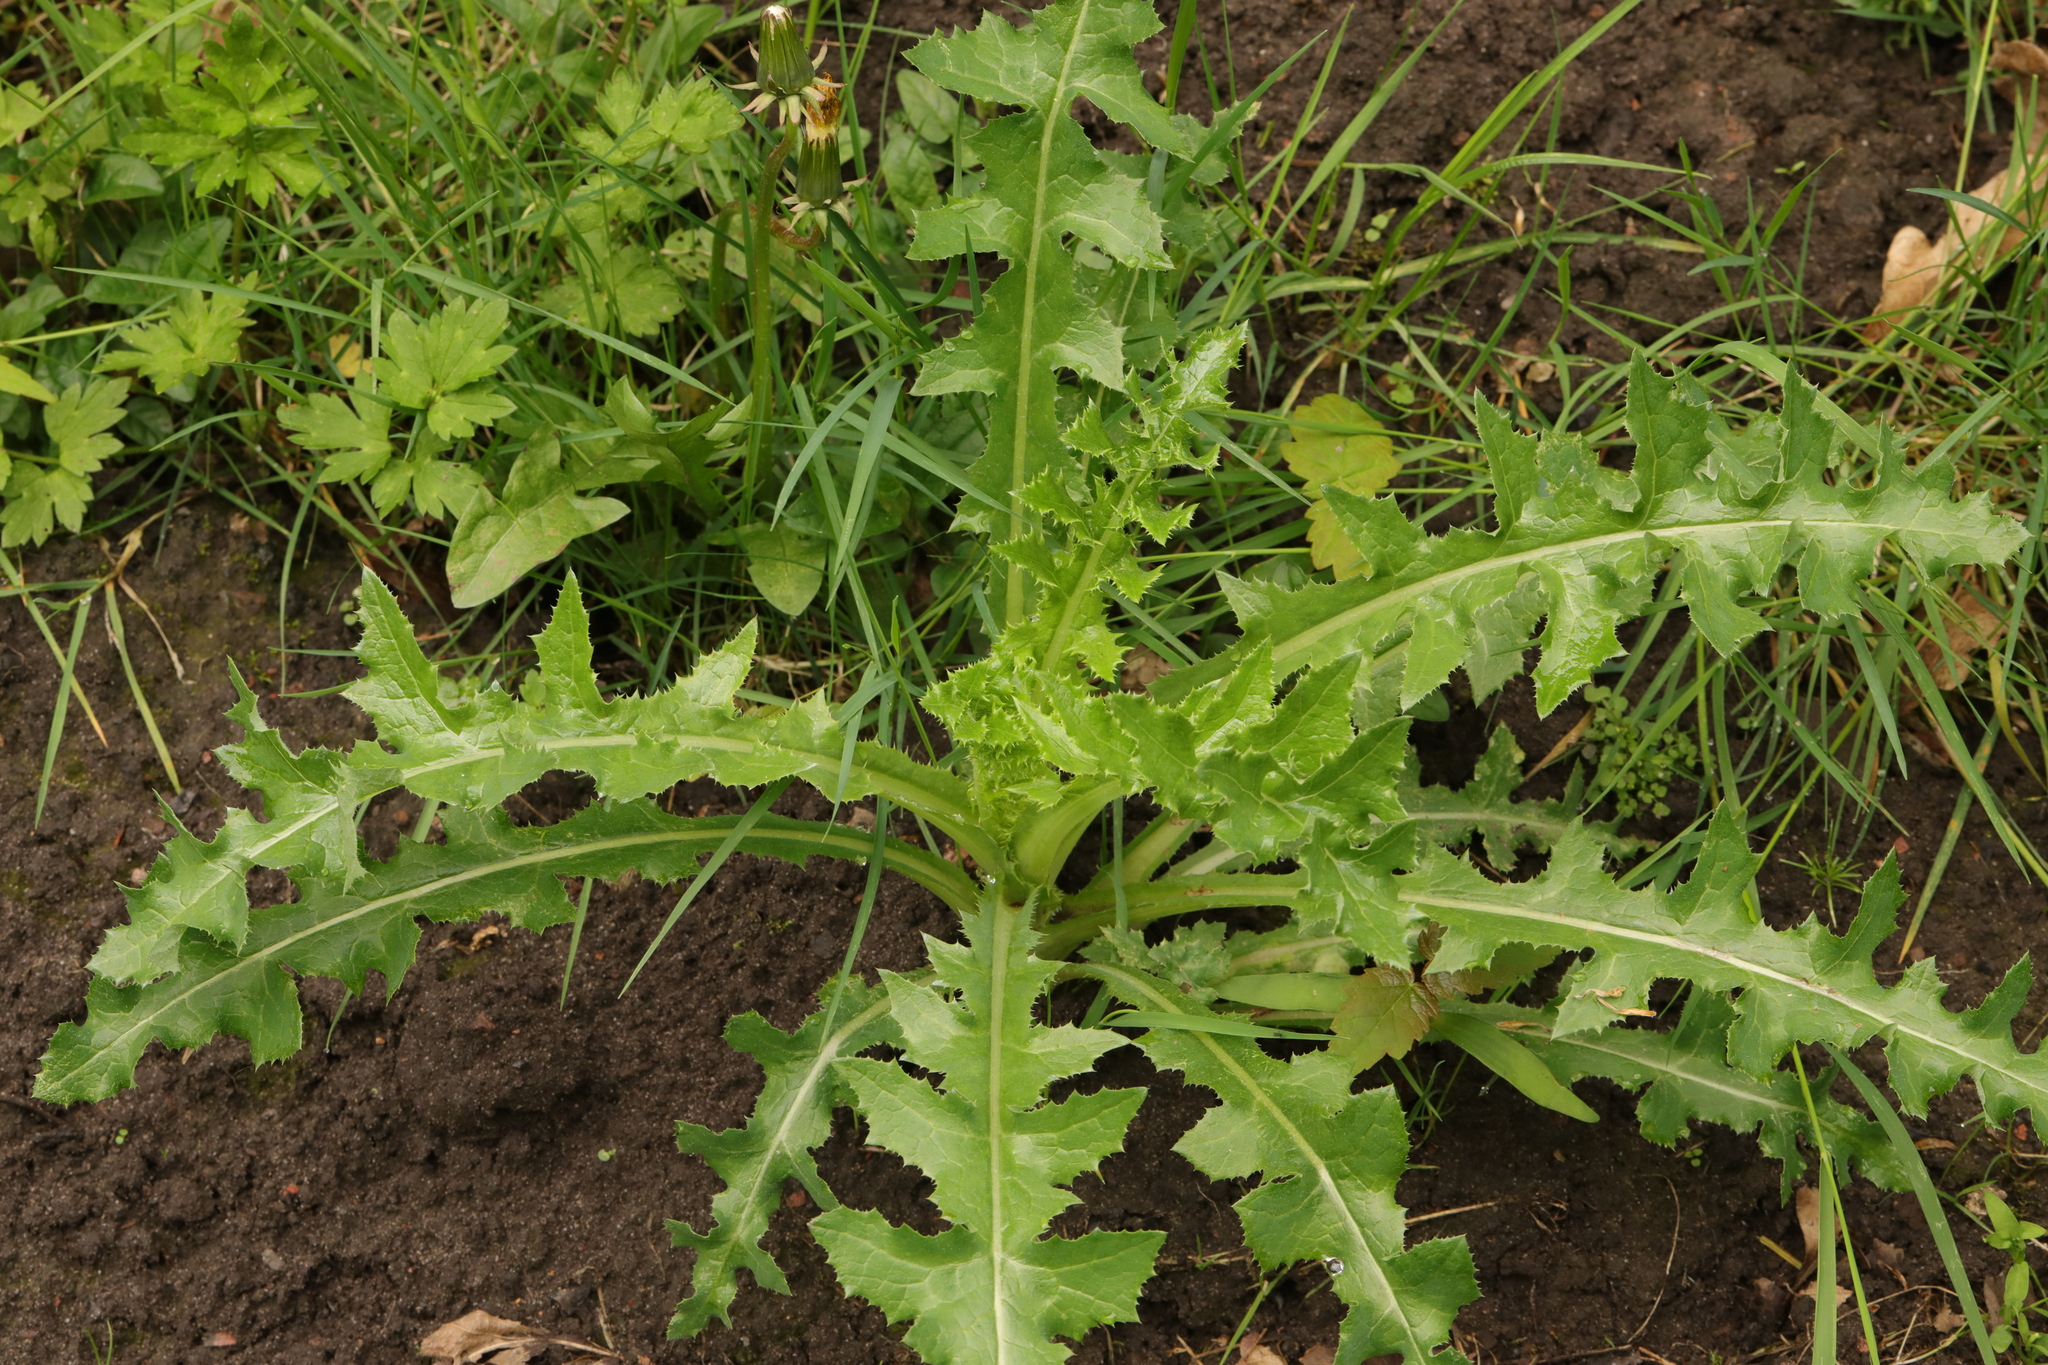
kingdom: Plantae
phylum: Tracheophyta
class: Magnoliopsida
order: Asterales
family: Asteraceae
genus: Sonchus
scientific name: Sonchus asper
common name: Prickly sow-thistle
